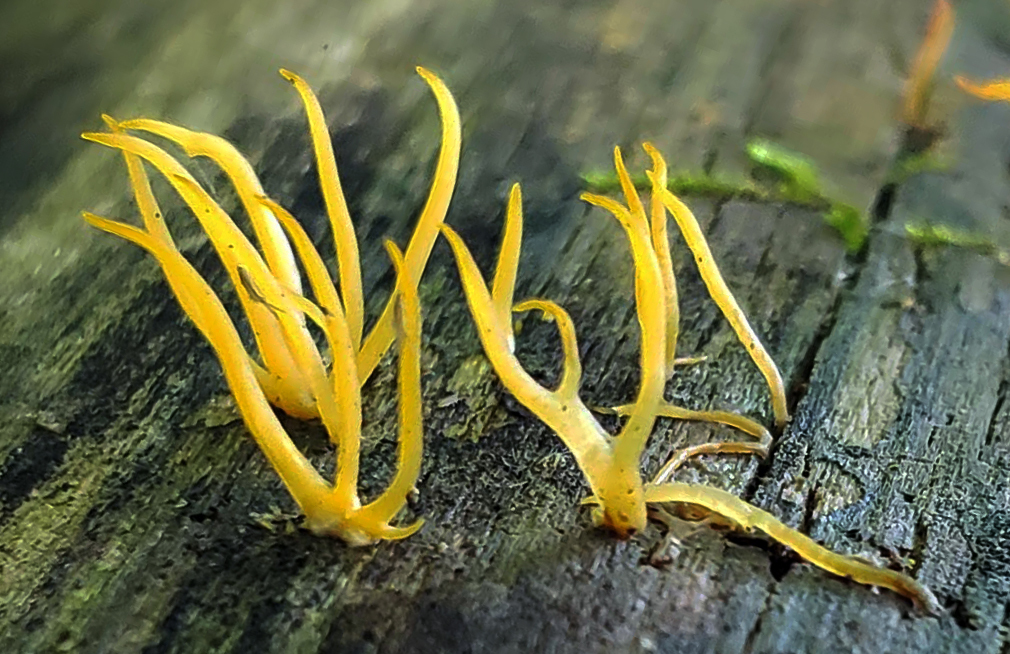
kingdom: Fungi
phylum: Basidiomycota
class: Dacrymycetes
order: Dacrymycetales
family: Dacrymycetaceae
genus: Calocera
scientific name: Calocera cornea
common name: Small stagshorn
